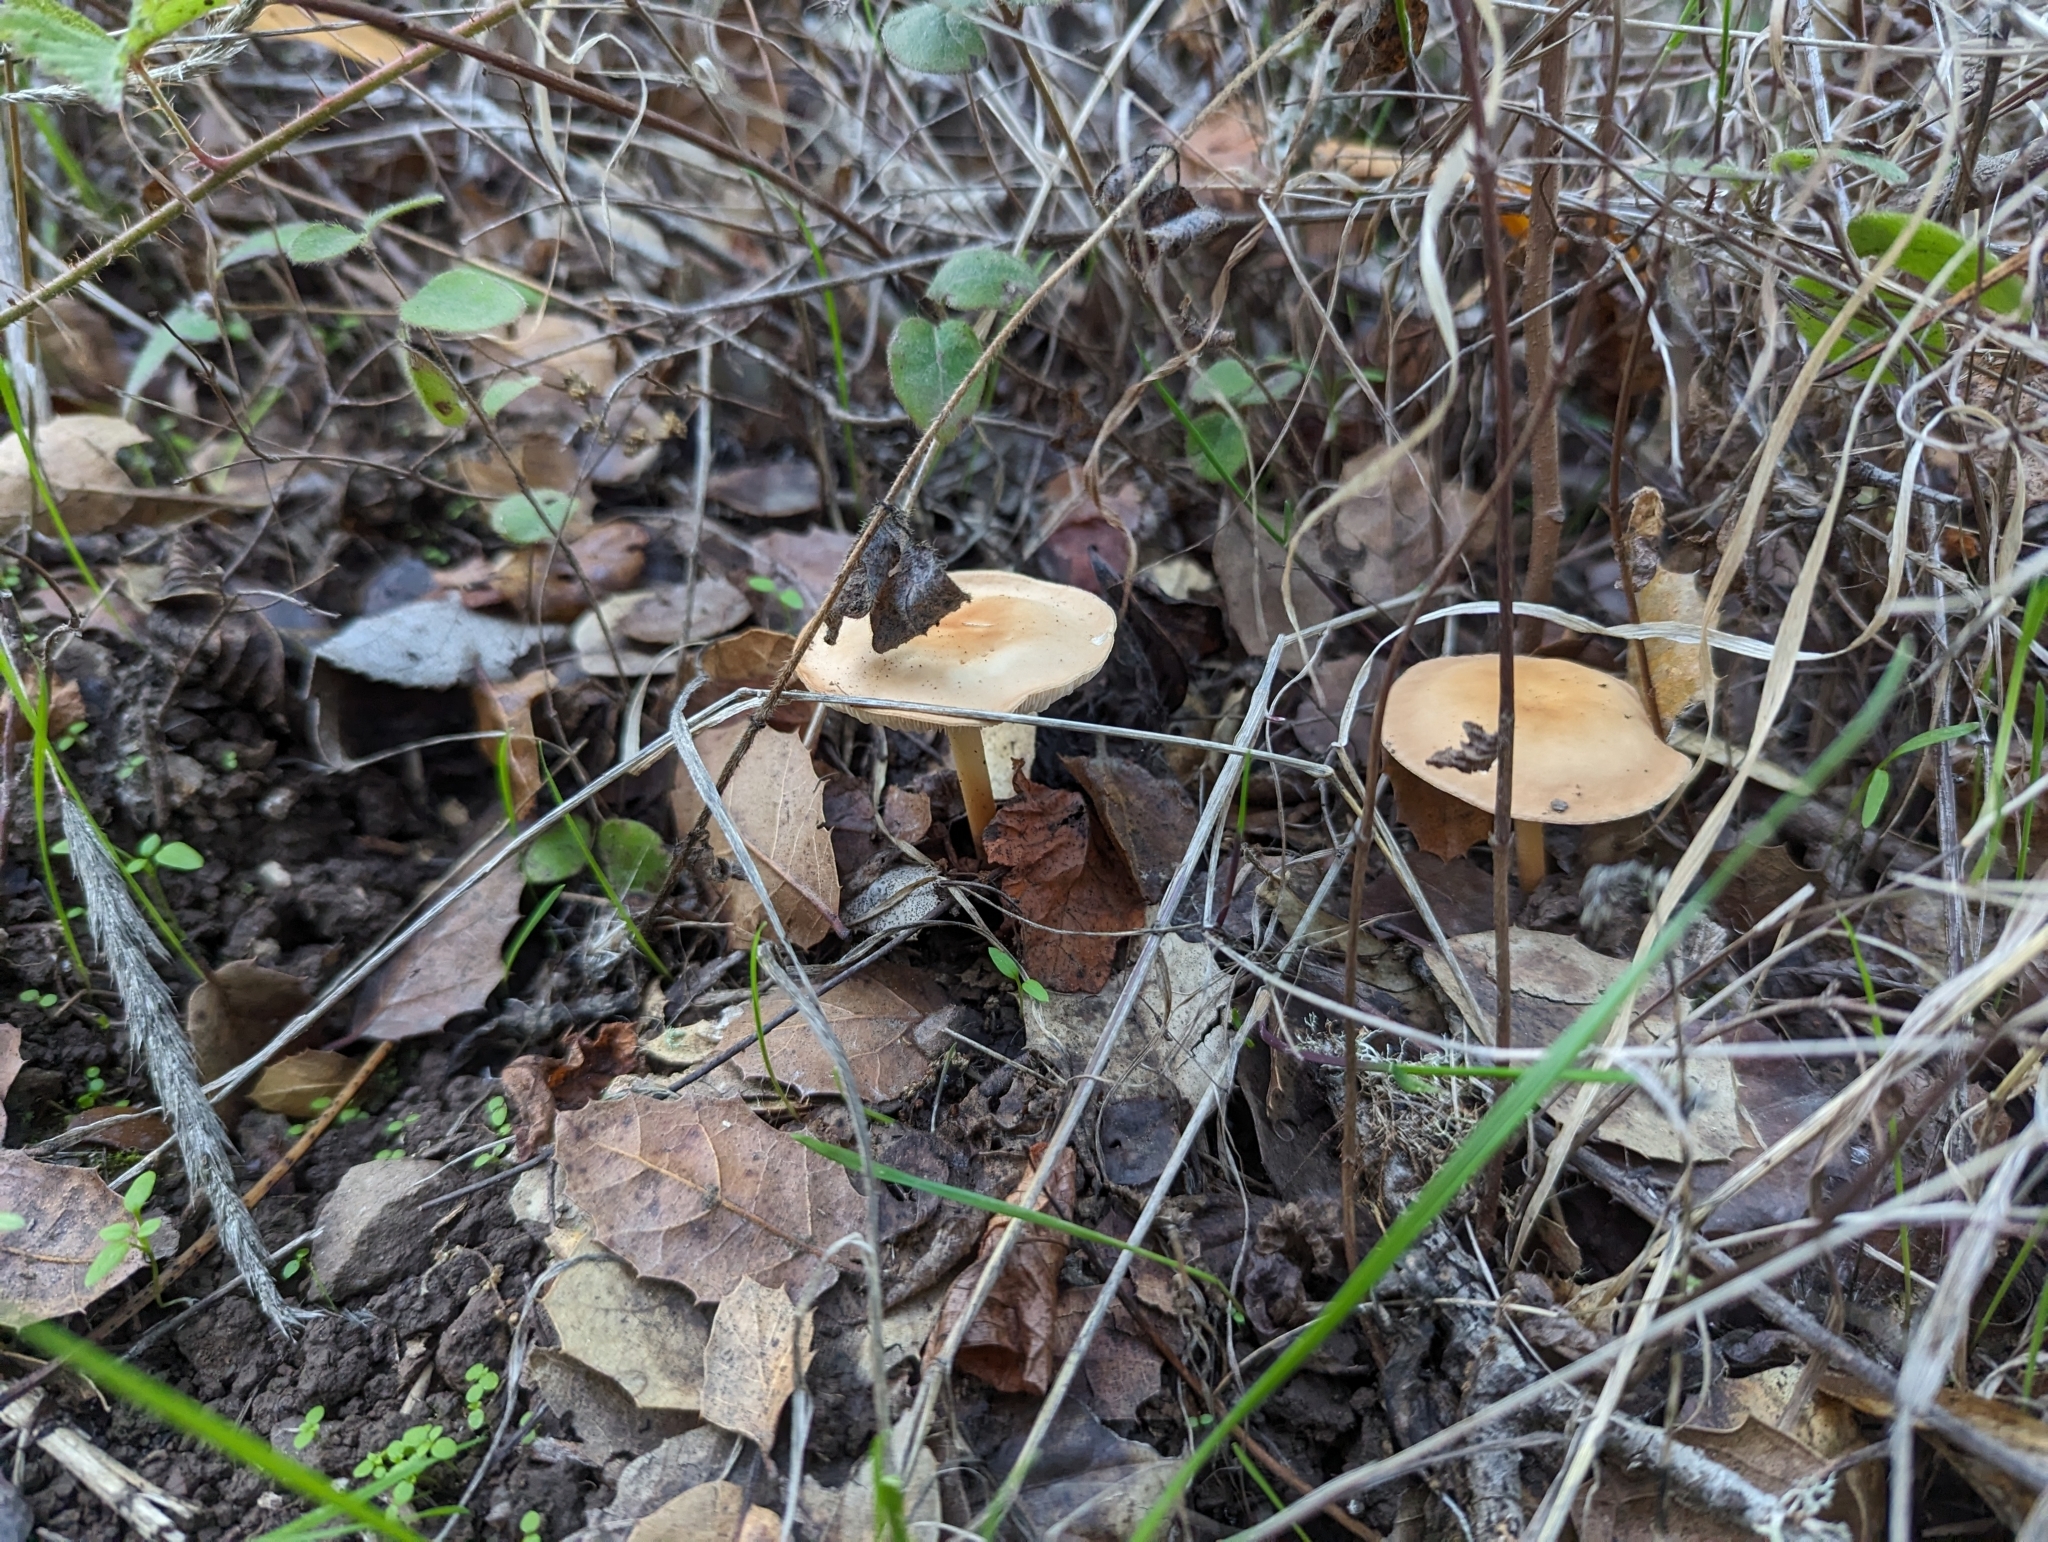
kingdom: Fungi
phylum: Basidiomycota
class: Agaricomycetes
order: Agaricales
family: Omphalotaceae
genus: Gymnopus
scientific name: Gymnopus dryophilus
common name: Penny top
